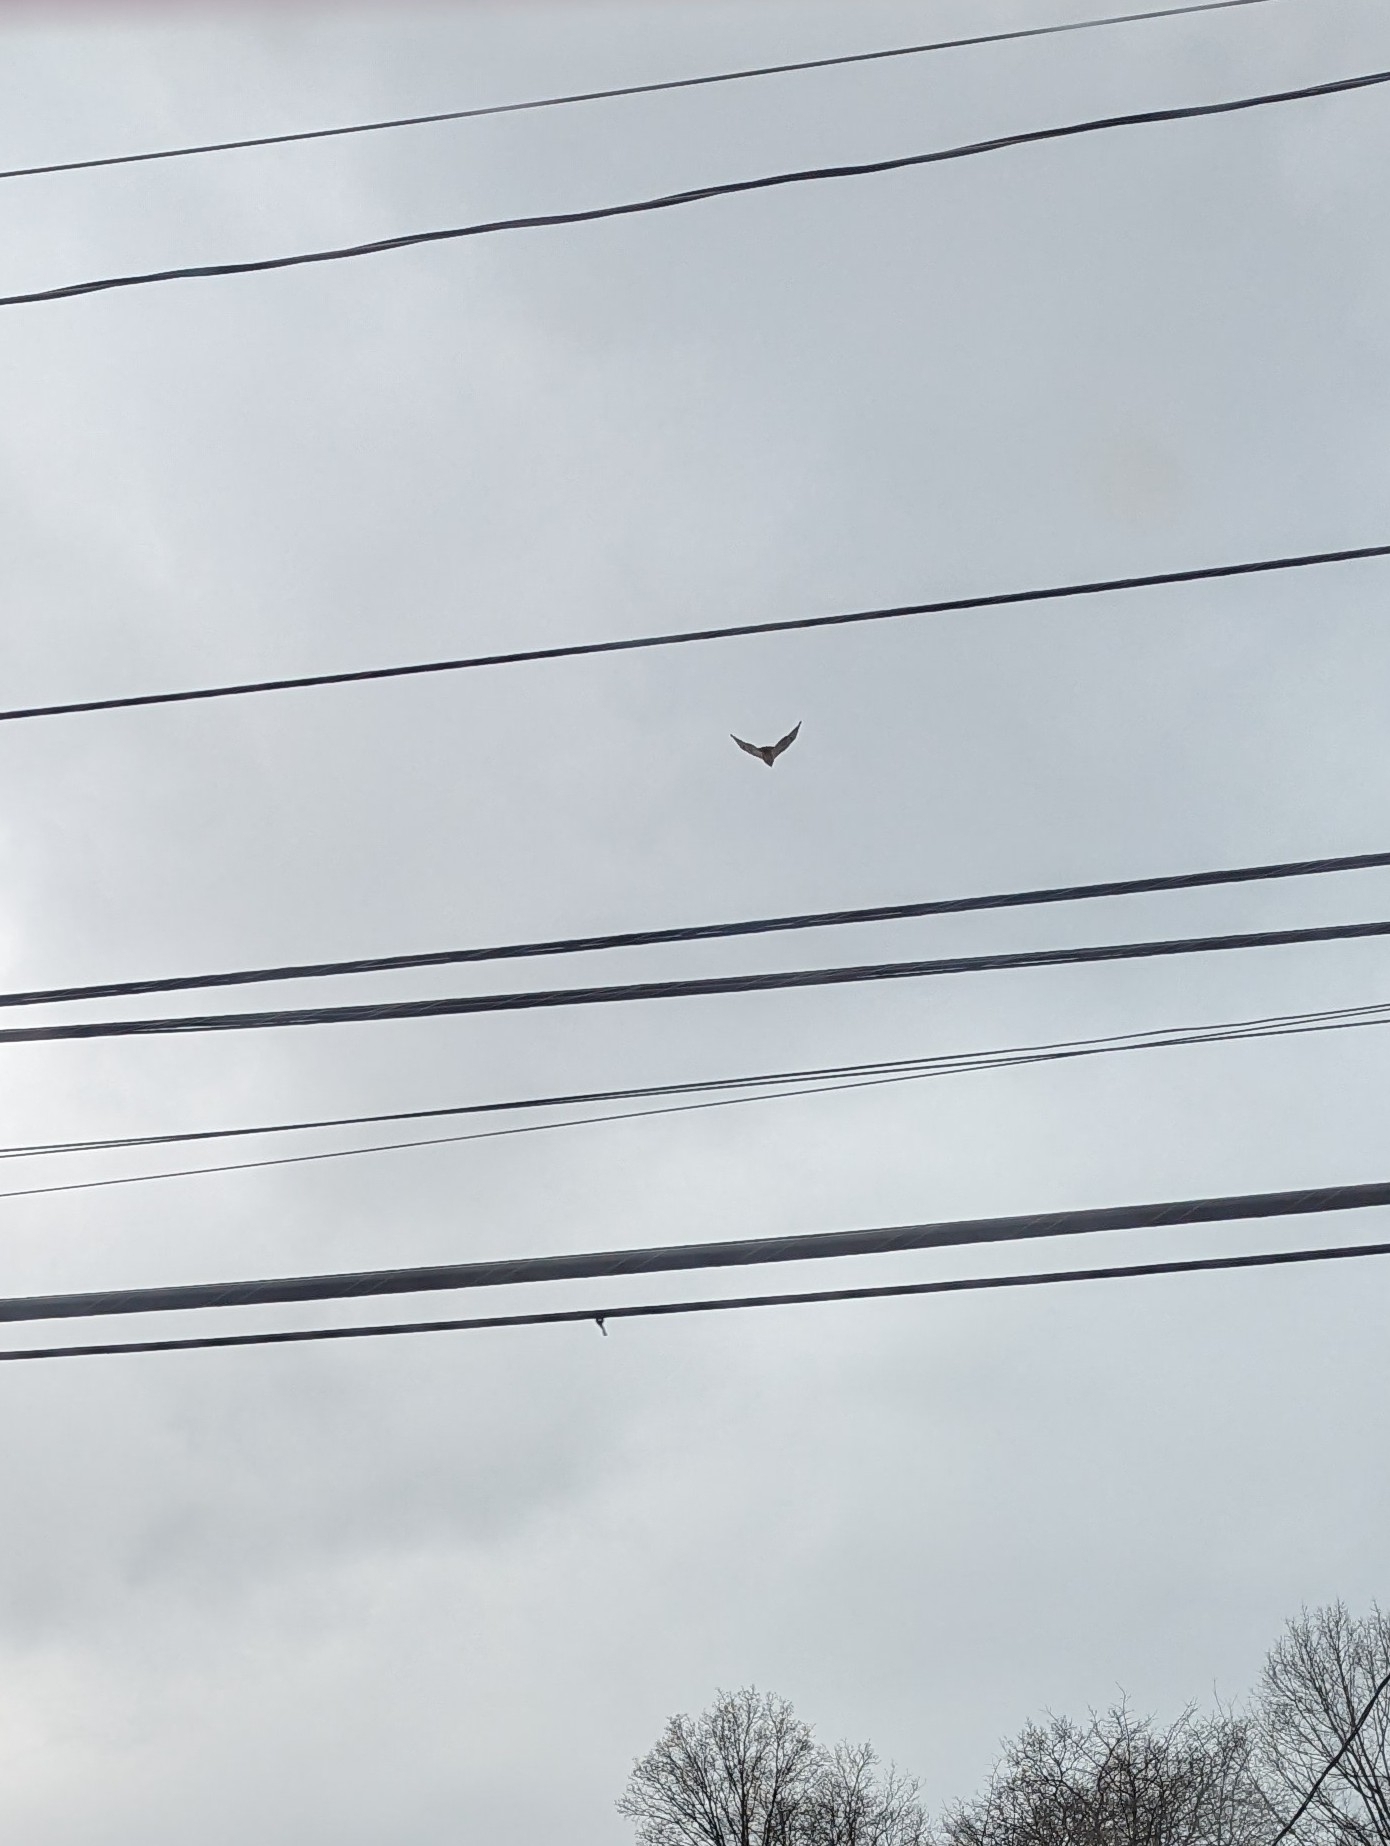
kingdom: Animalia
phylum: Chordata
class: Aves
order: Accipitriformes
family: Accipitridae
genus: Buteo
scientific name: Buteo jamaicensis
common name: Red-tailed hawk
